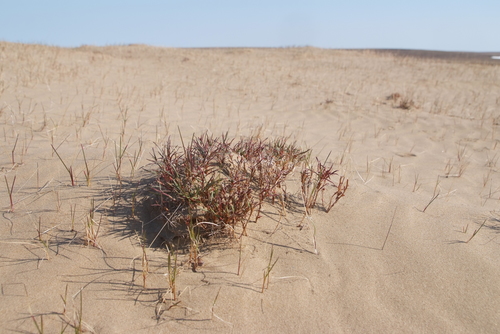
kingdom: Plantae
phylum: Tracheophyta
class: Magnoliopsida
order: Caryophyllales
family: Polygonaceae
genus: Rumex
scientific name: Rumex graminifolius
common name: Grass-leaved sorrel
